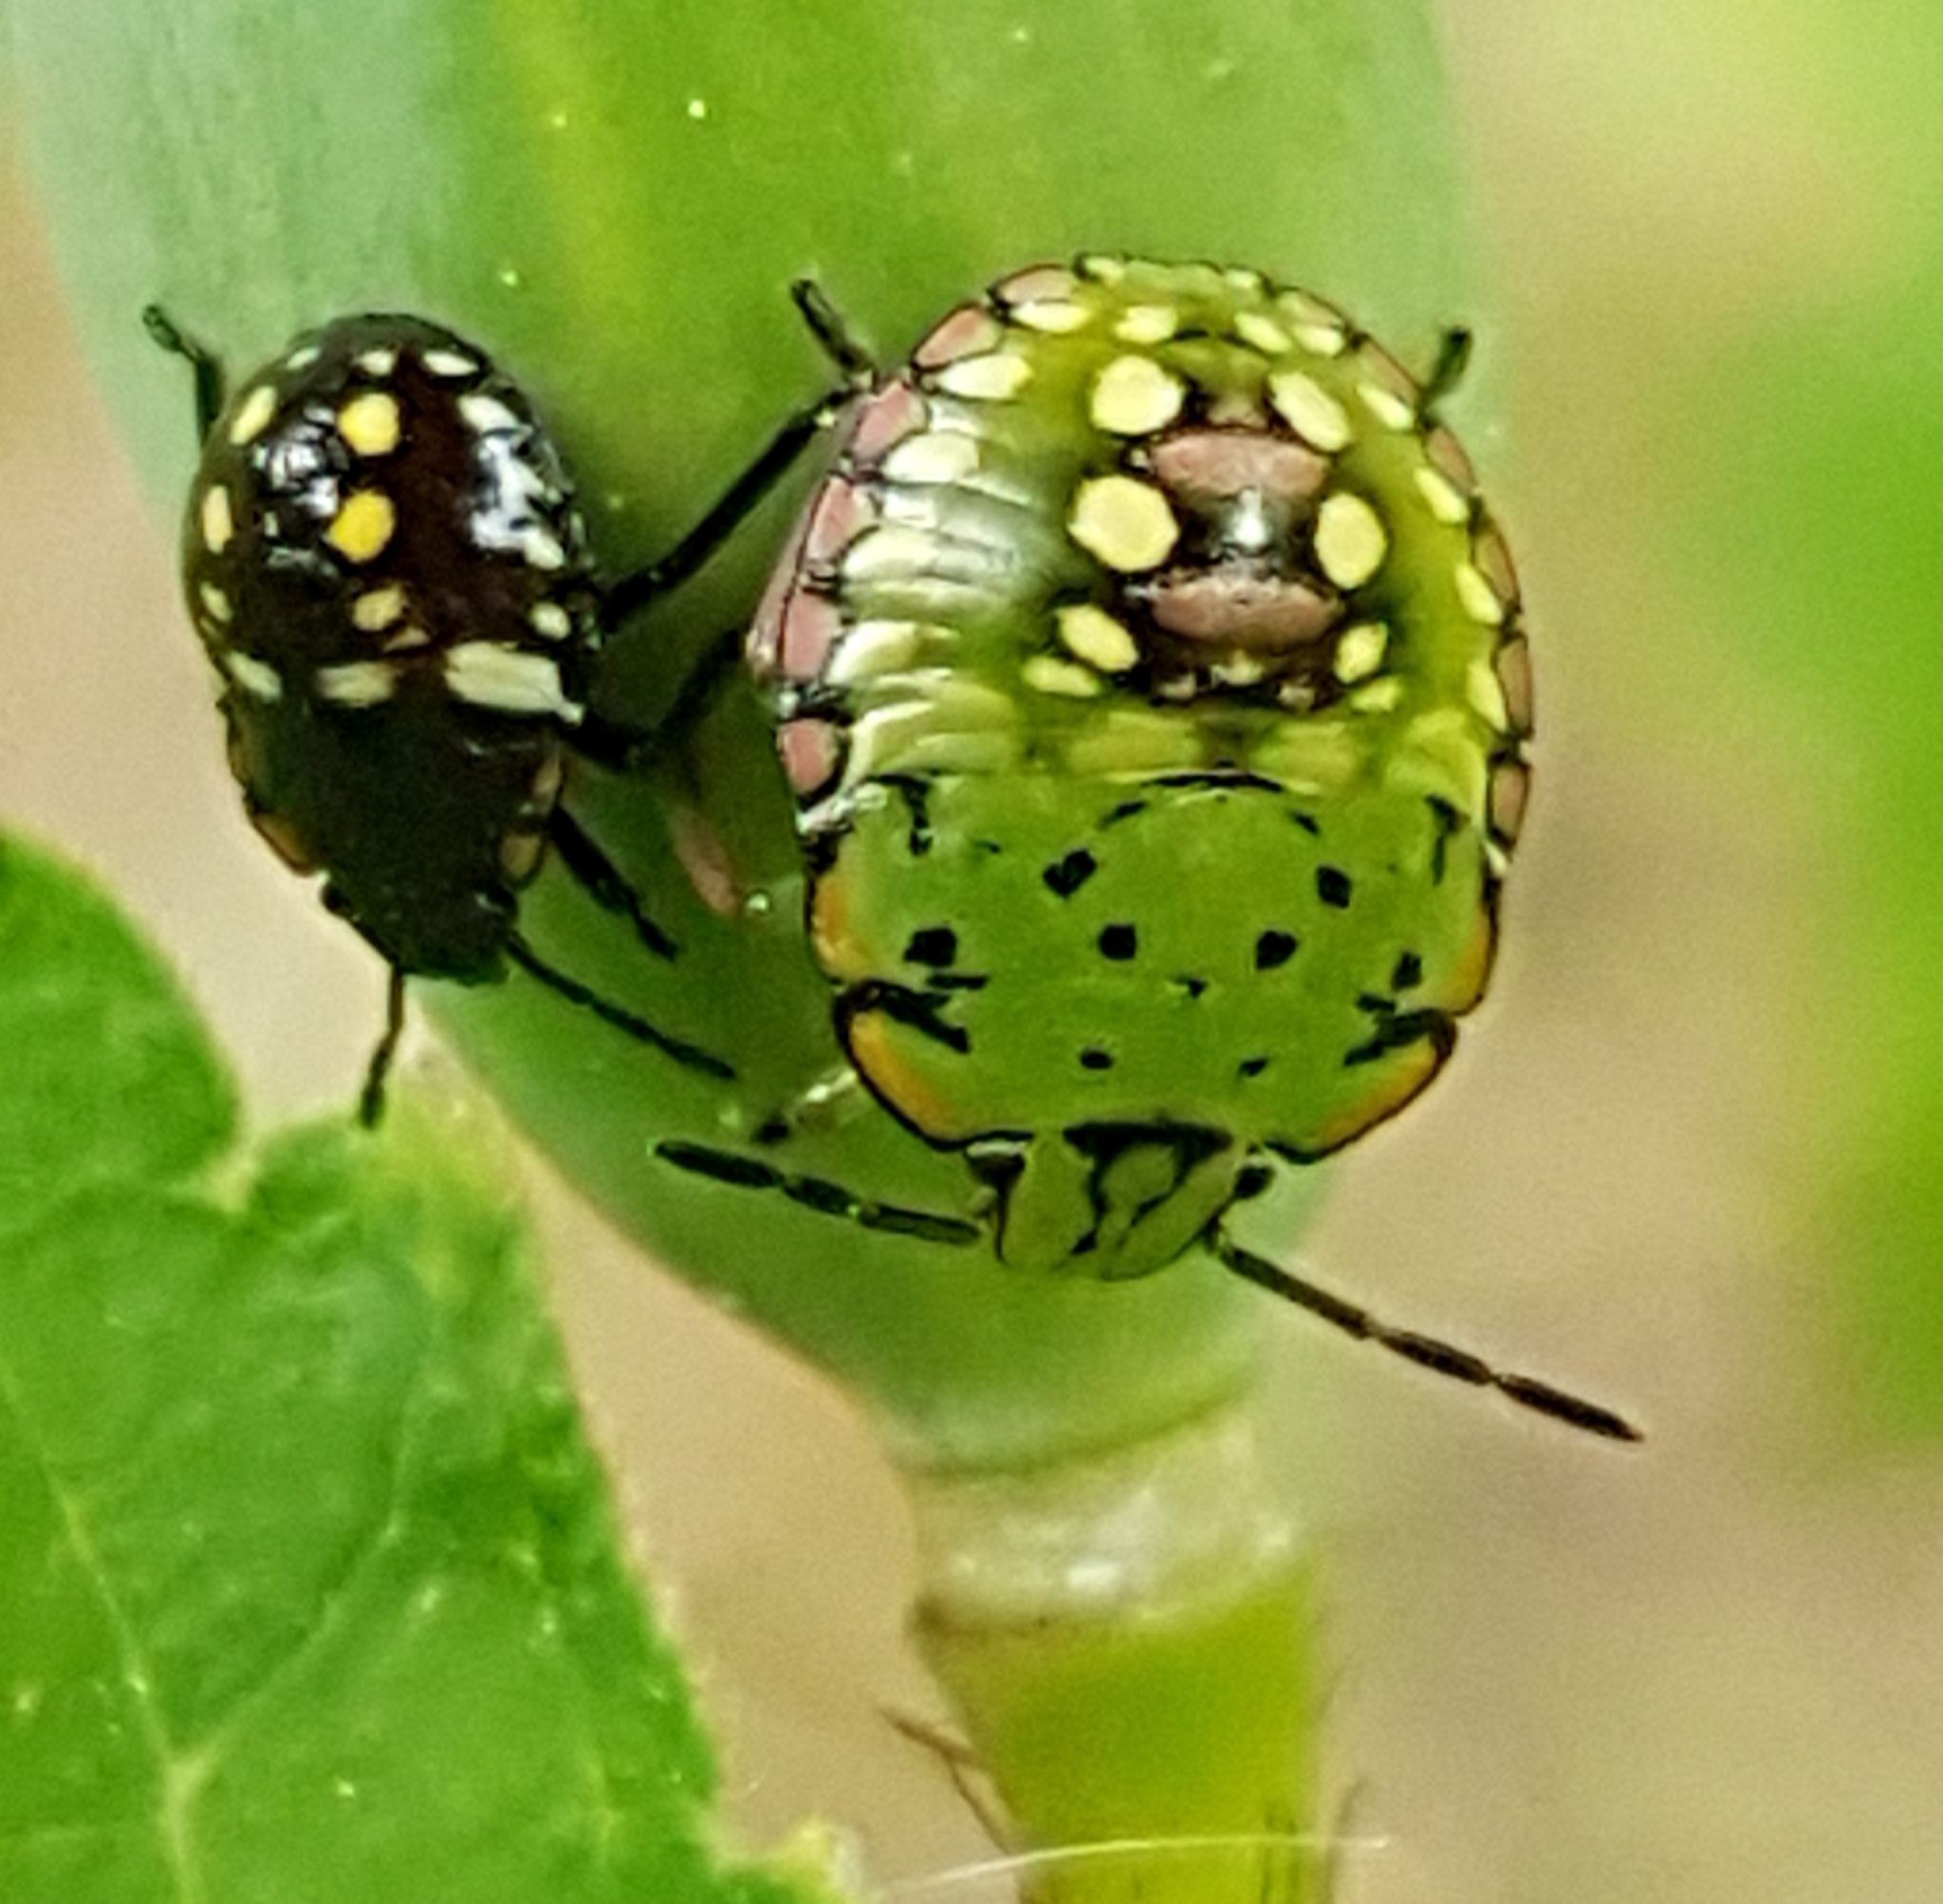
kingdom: Animalia
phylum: Arthropoda
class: Insecta
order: Hemiptera
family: Pentatomidae
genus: Nezara
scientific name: Nezara viridula
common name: Southern green stink bug
